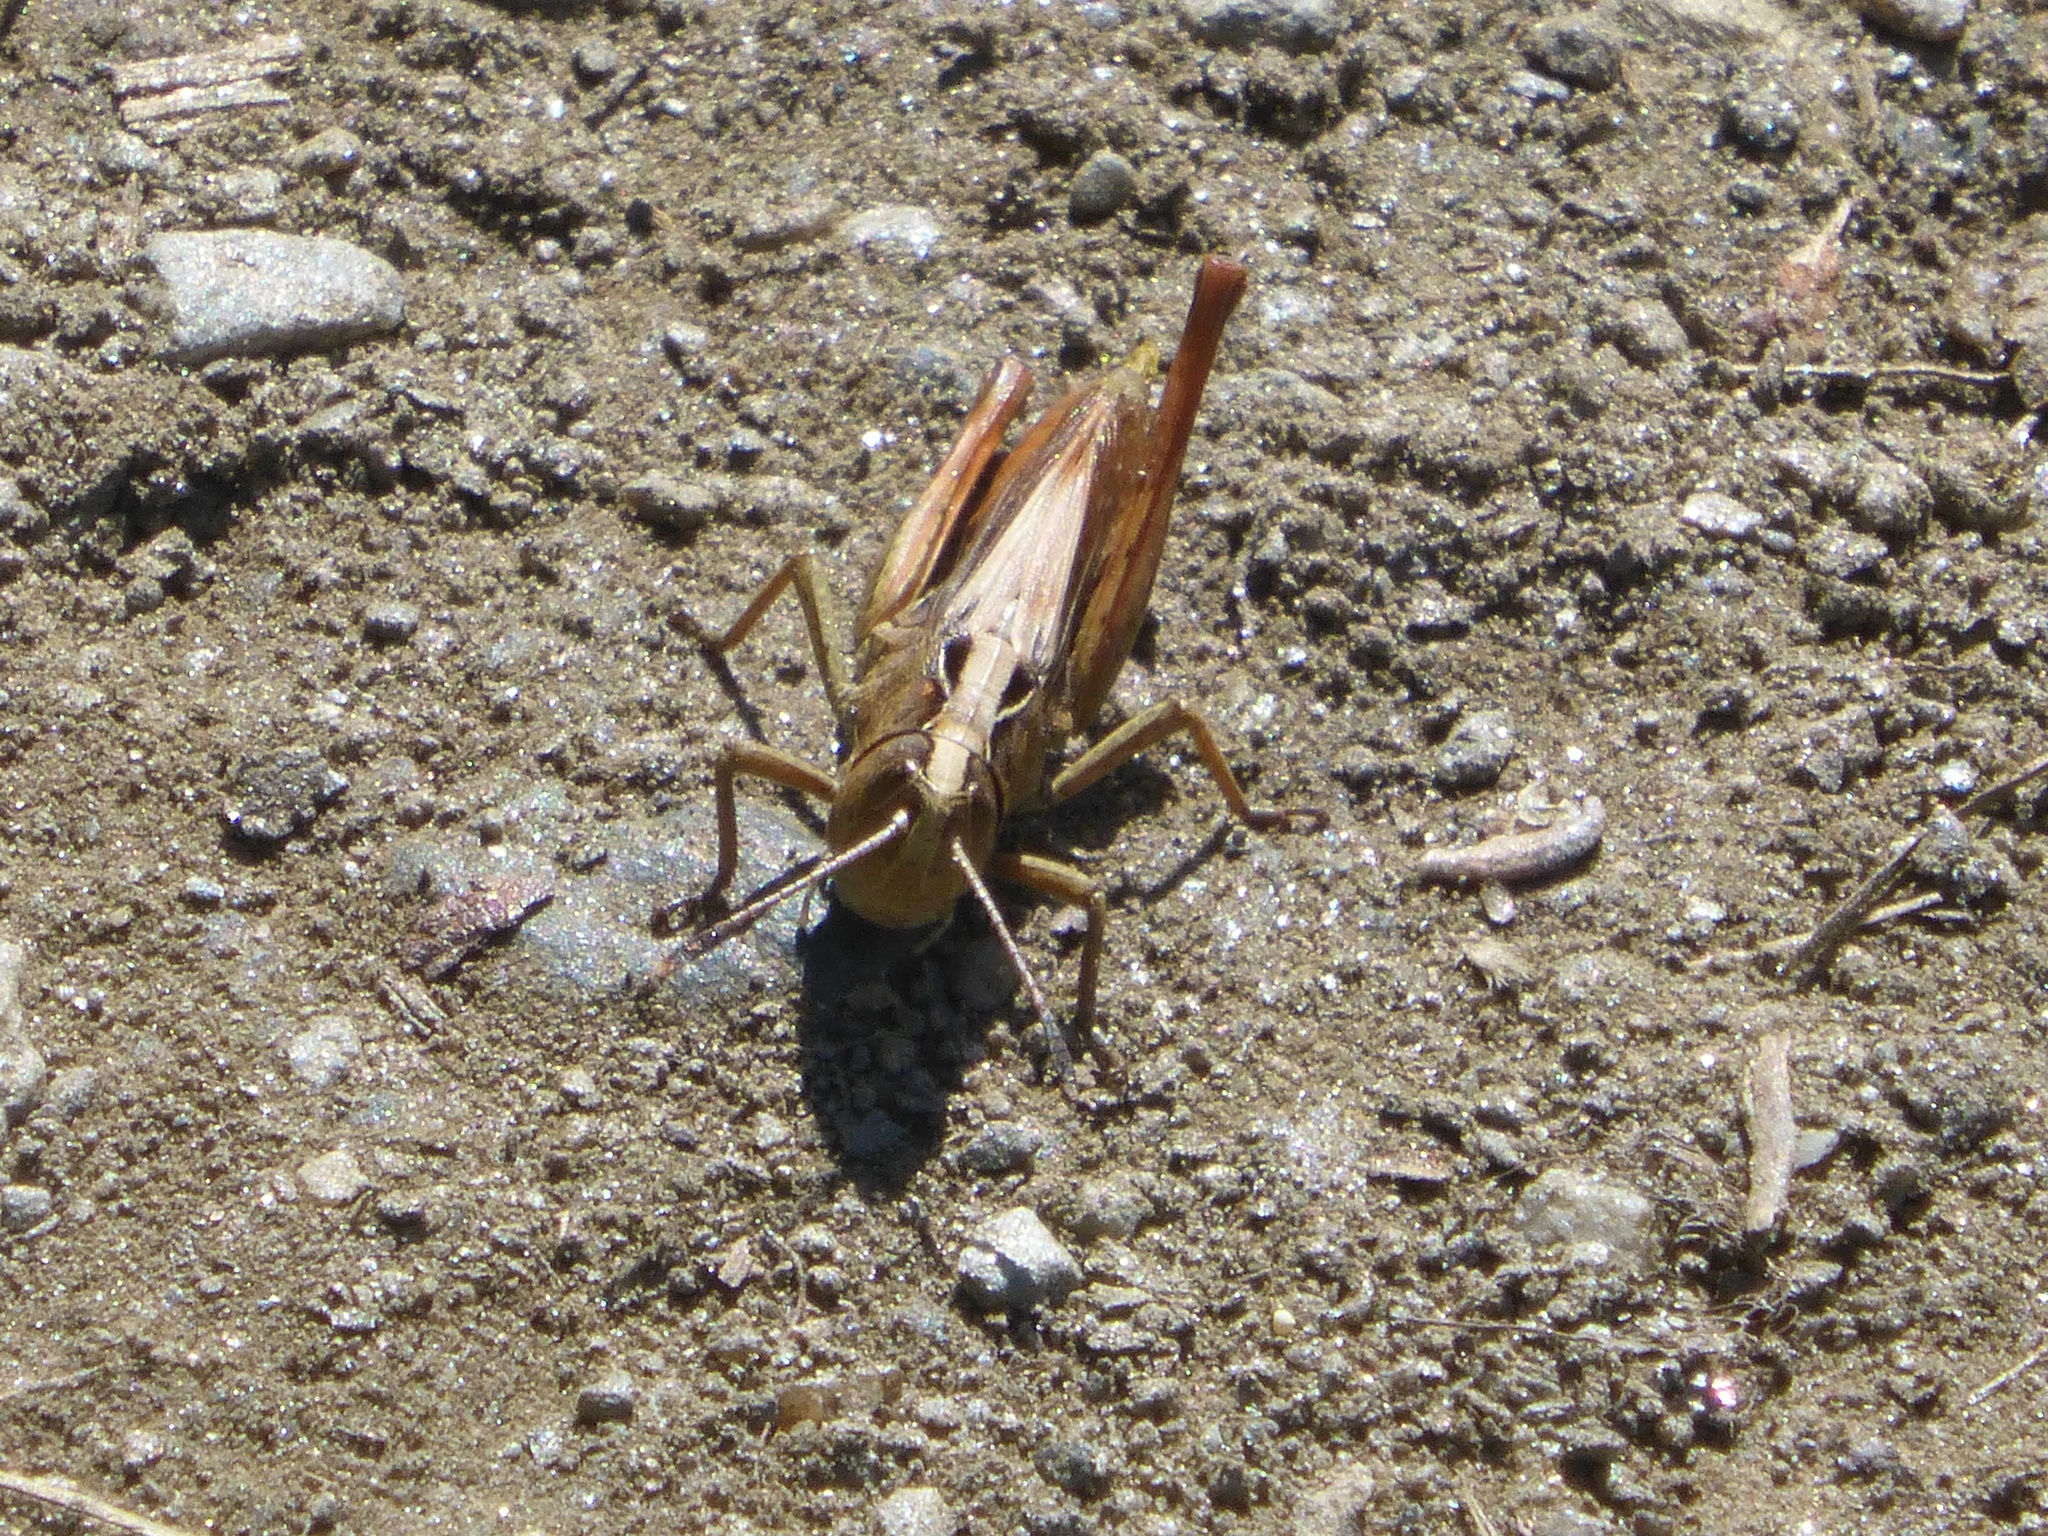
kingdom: Animalia
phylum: Arthropoda
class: Insecta
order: Orthoptera
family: Acrididae
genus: Gomphocerippus
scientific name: Gomphocerippus rufus
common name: Rufous grasshopper
